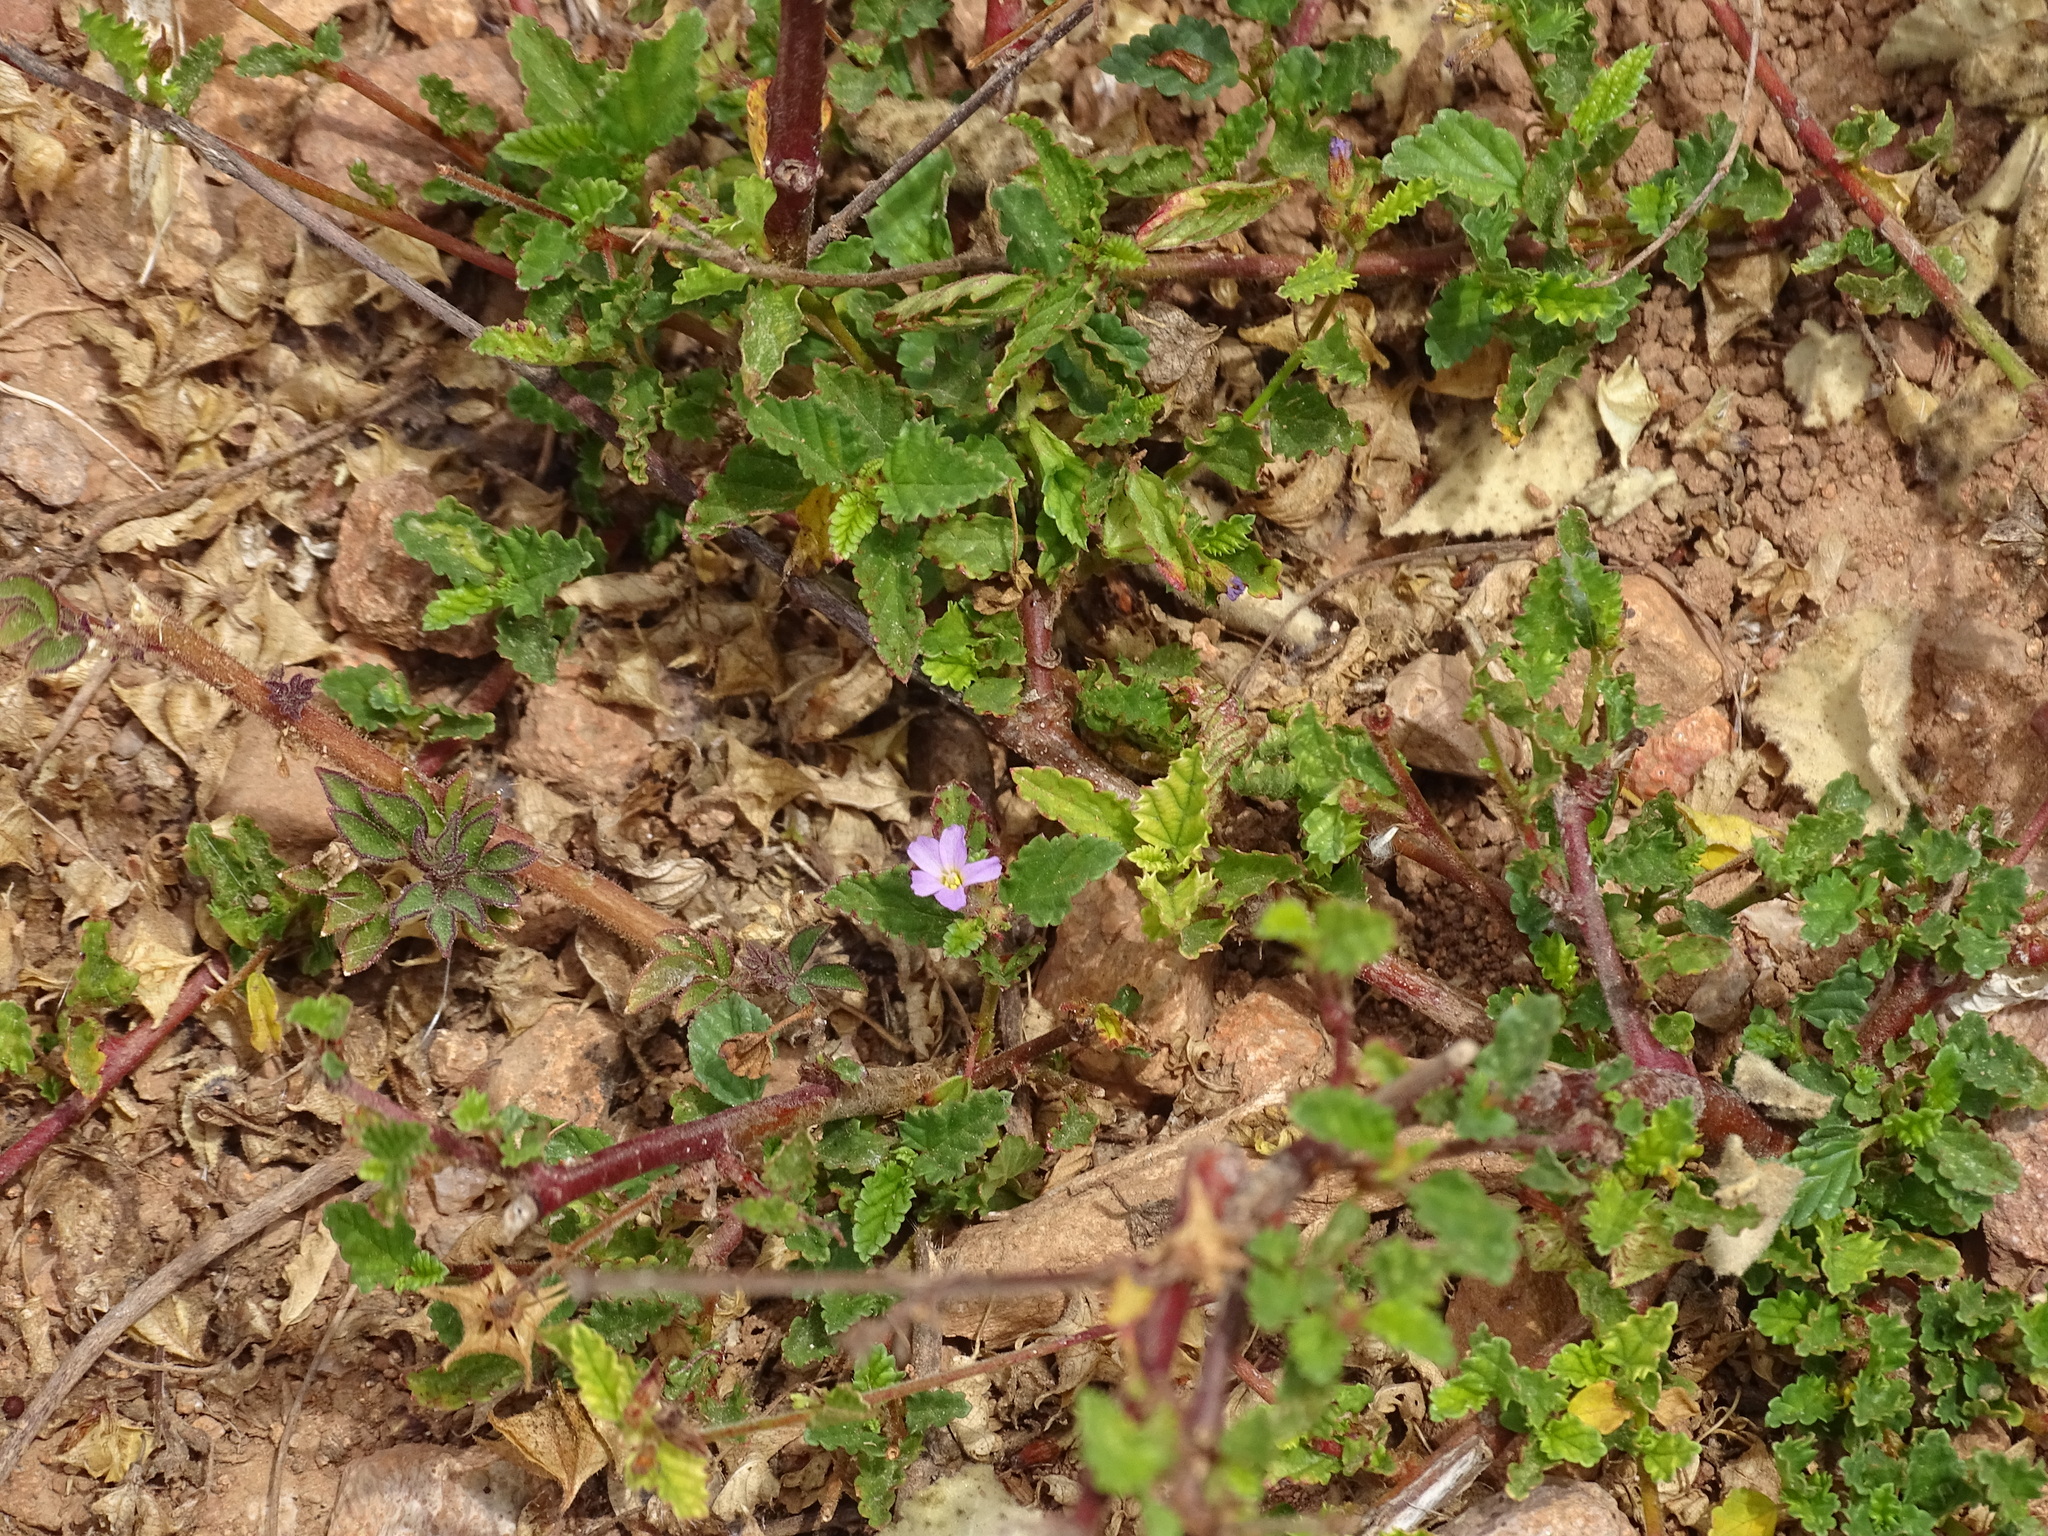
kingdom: Plantae
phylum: Tracheophyta
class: Magnoliopsida
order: Malvales
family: Malvaceae
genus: Melochia
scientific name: Melochia pyramidata
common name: Pyramidflower
